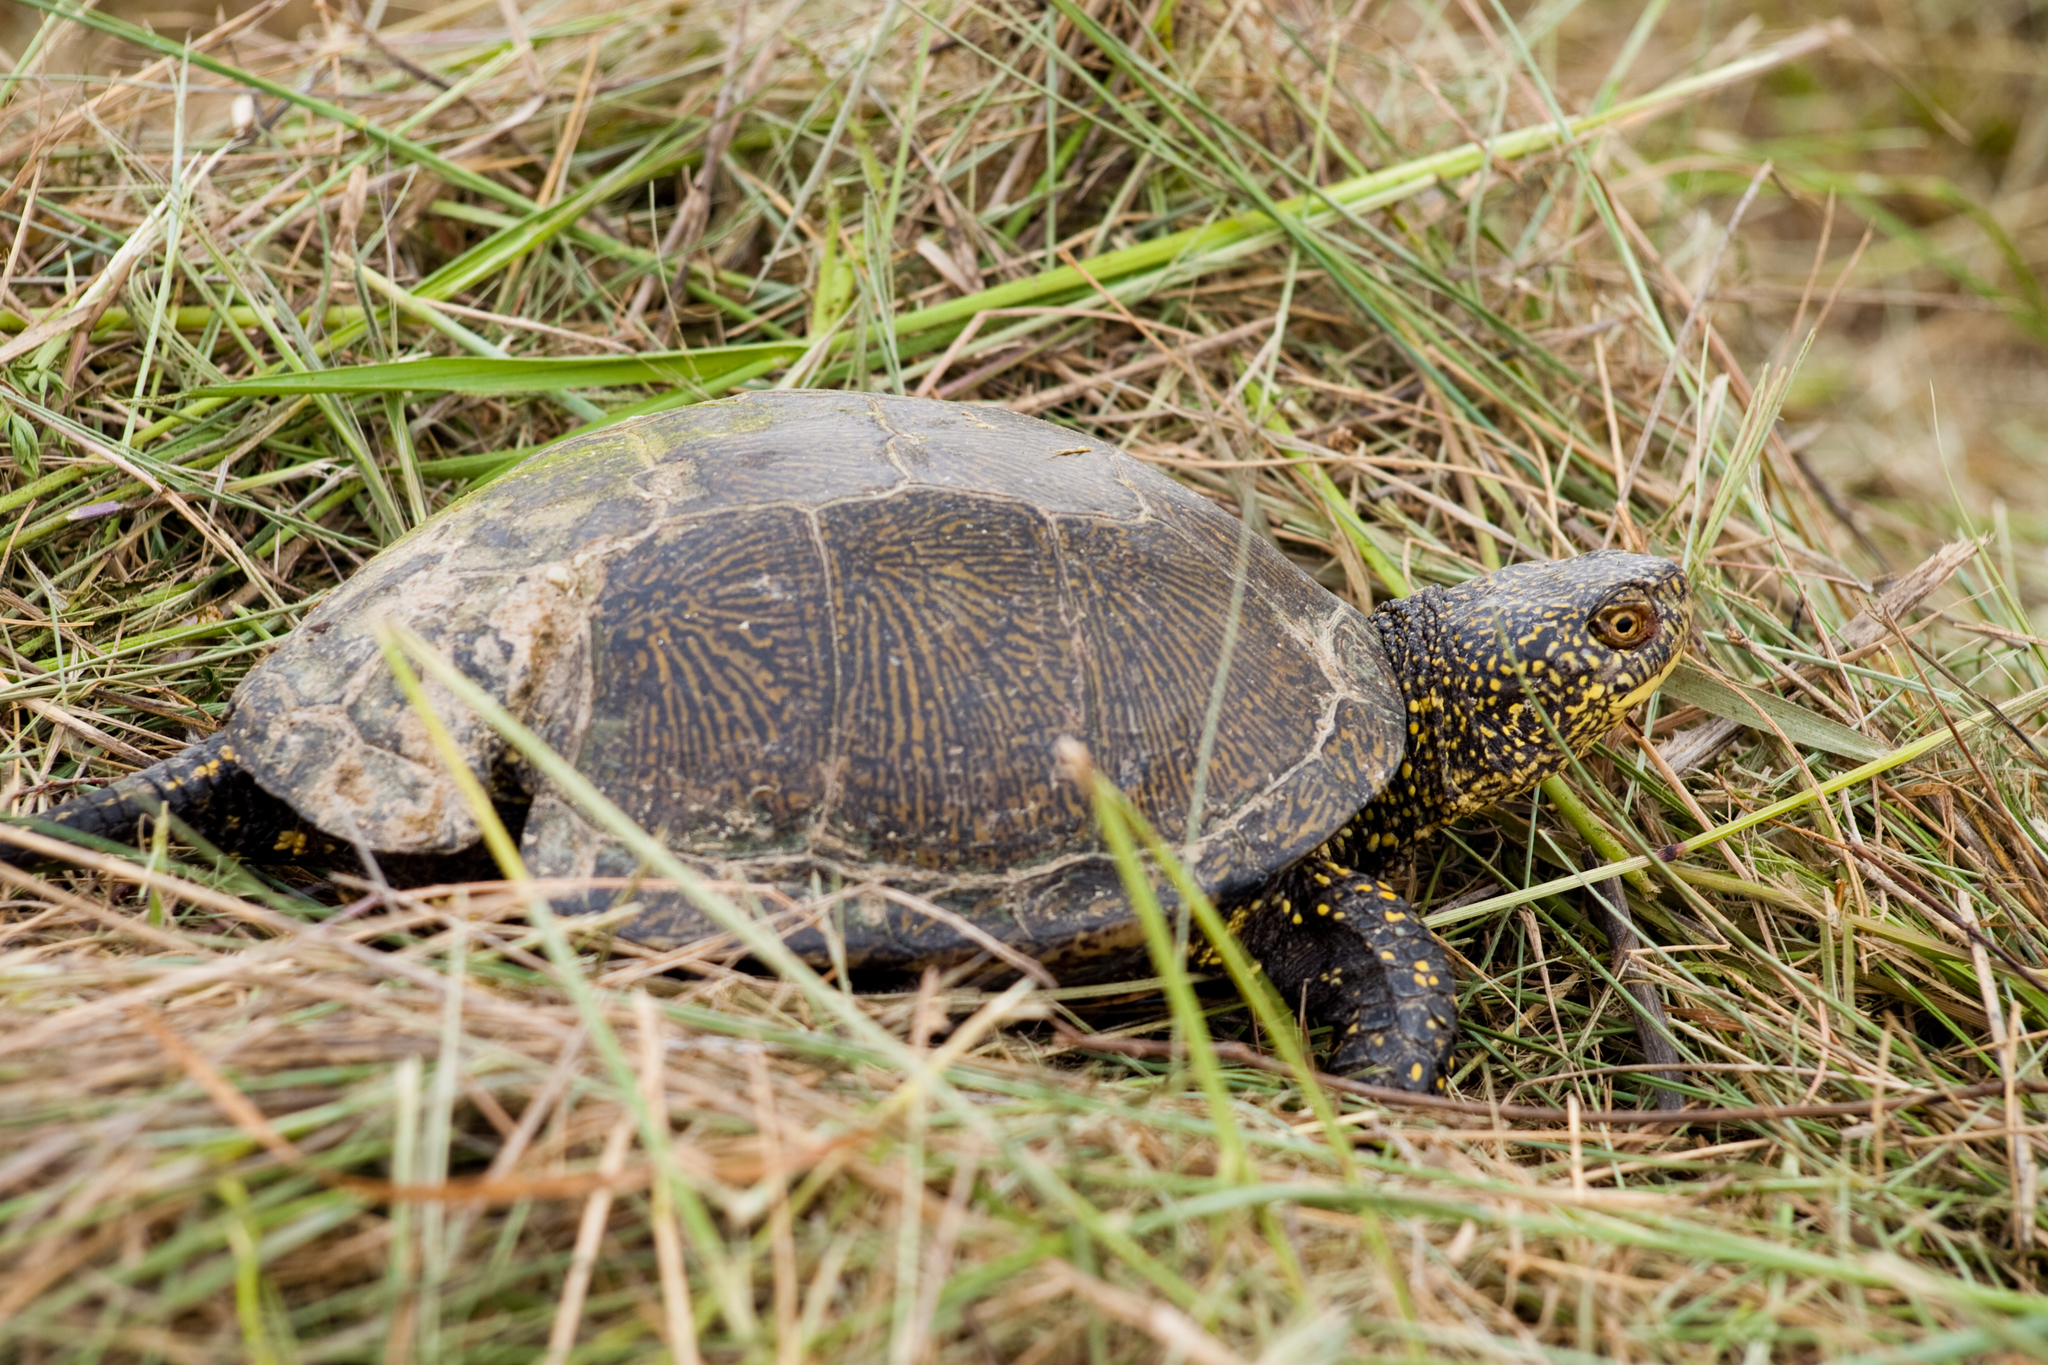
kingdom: Animalia
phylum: Chordata
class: Testudines
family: Emydidae
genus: Emys
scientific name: Emys orbicularis
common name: European pond turtle
